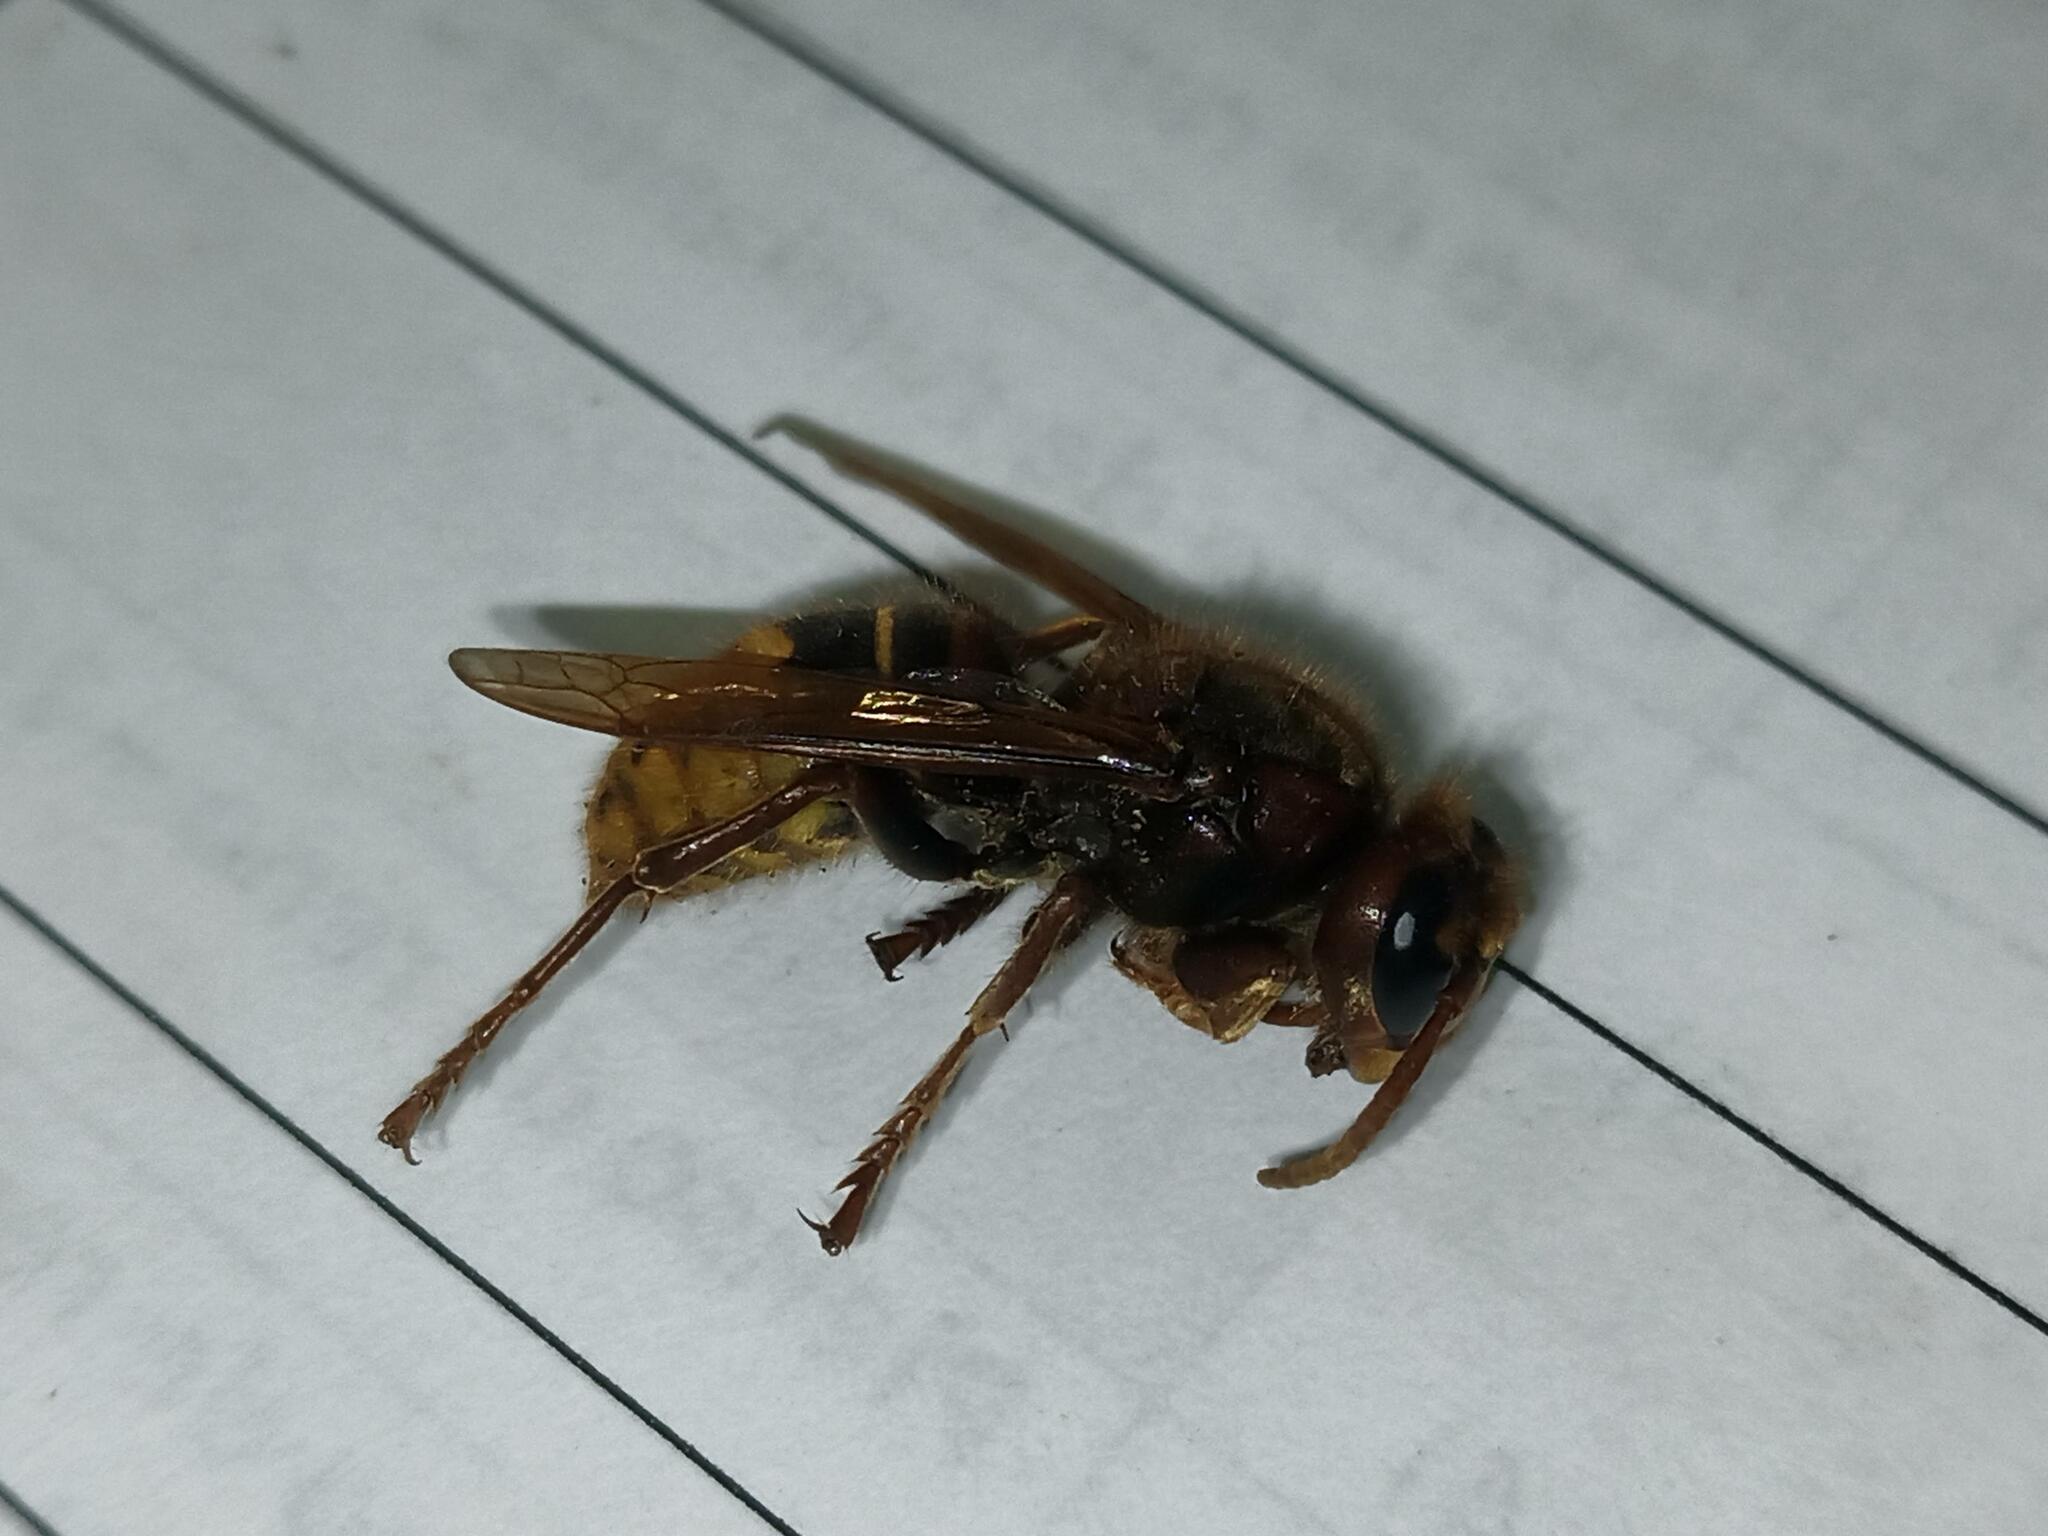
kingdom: Animalia
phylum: Arthropoda
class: Insecta
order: Hymenoptera
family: Vespidae
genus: Vespa
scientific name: Vespa crabro
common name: Hornet
